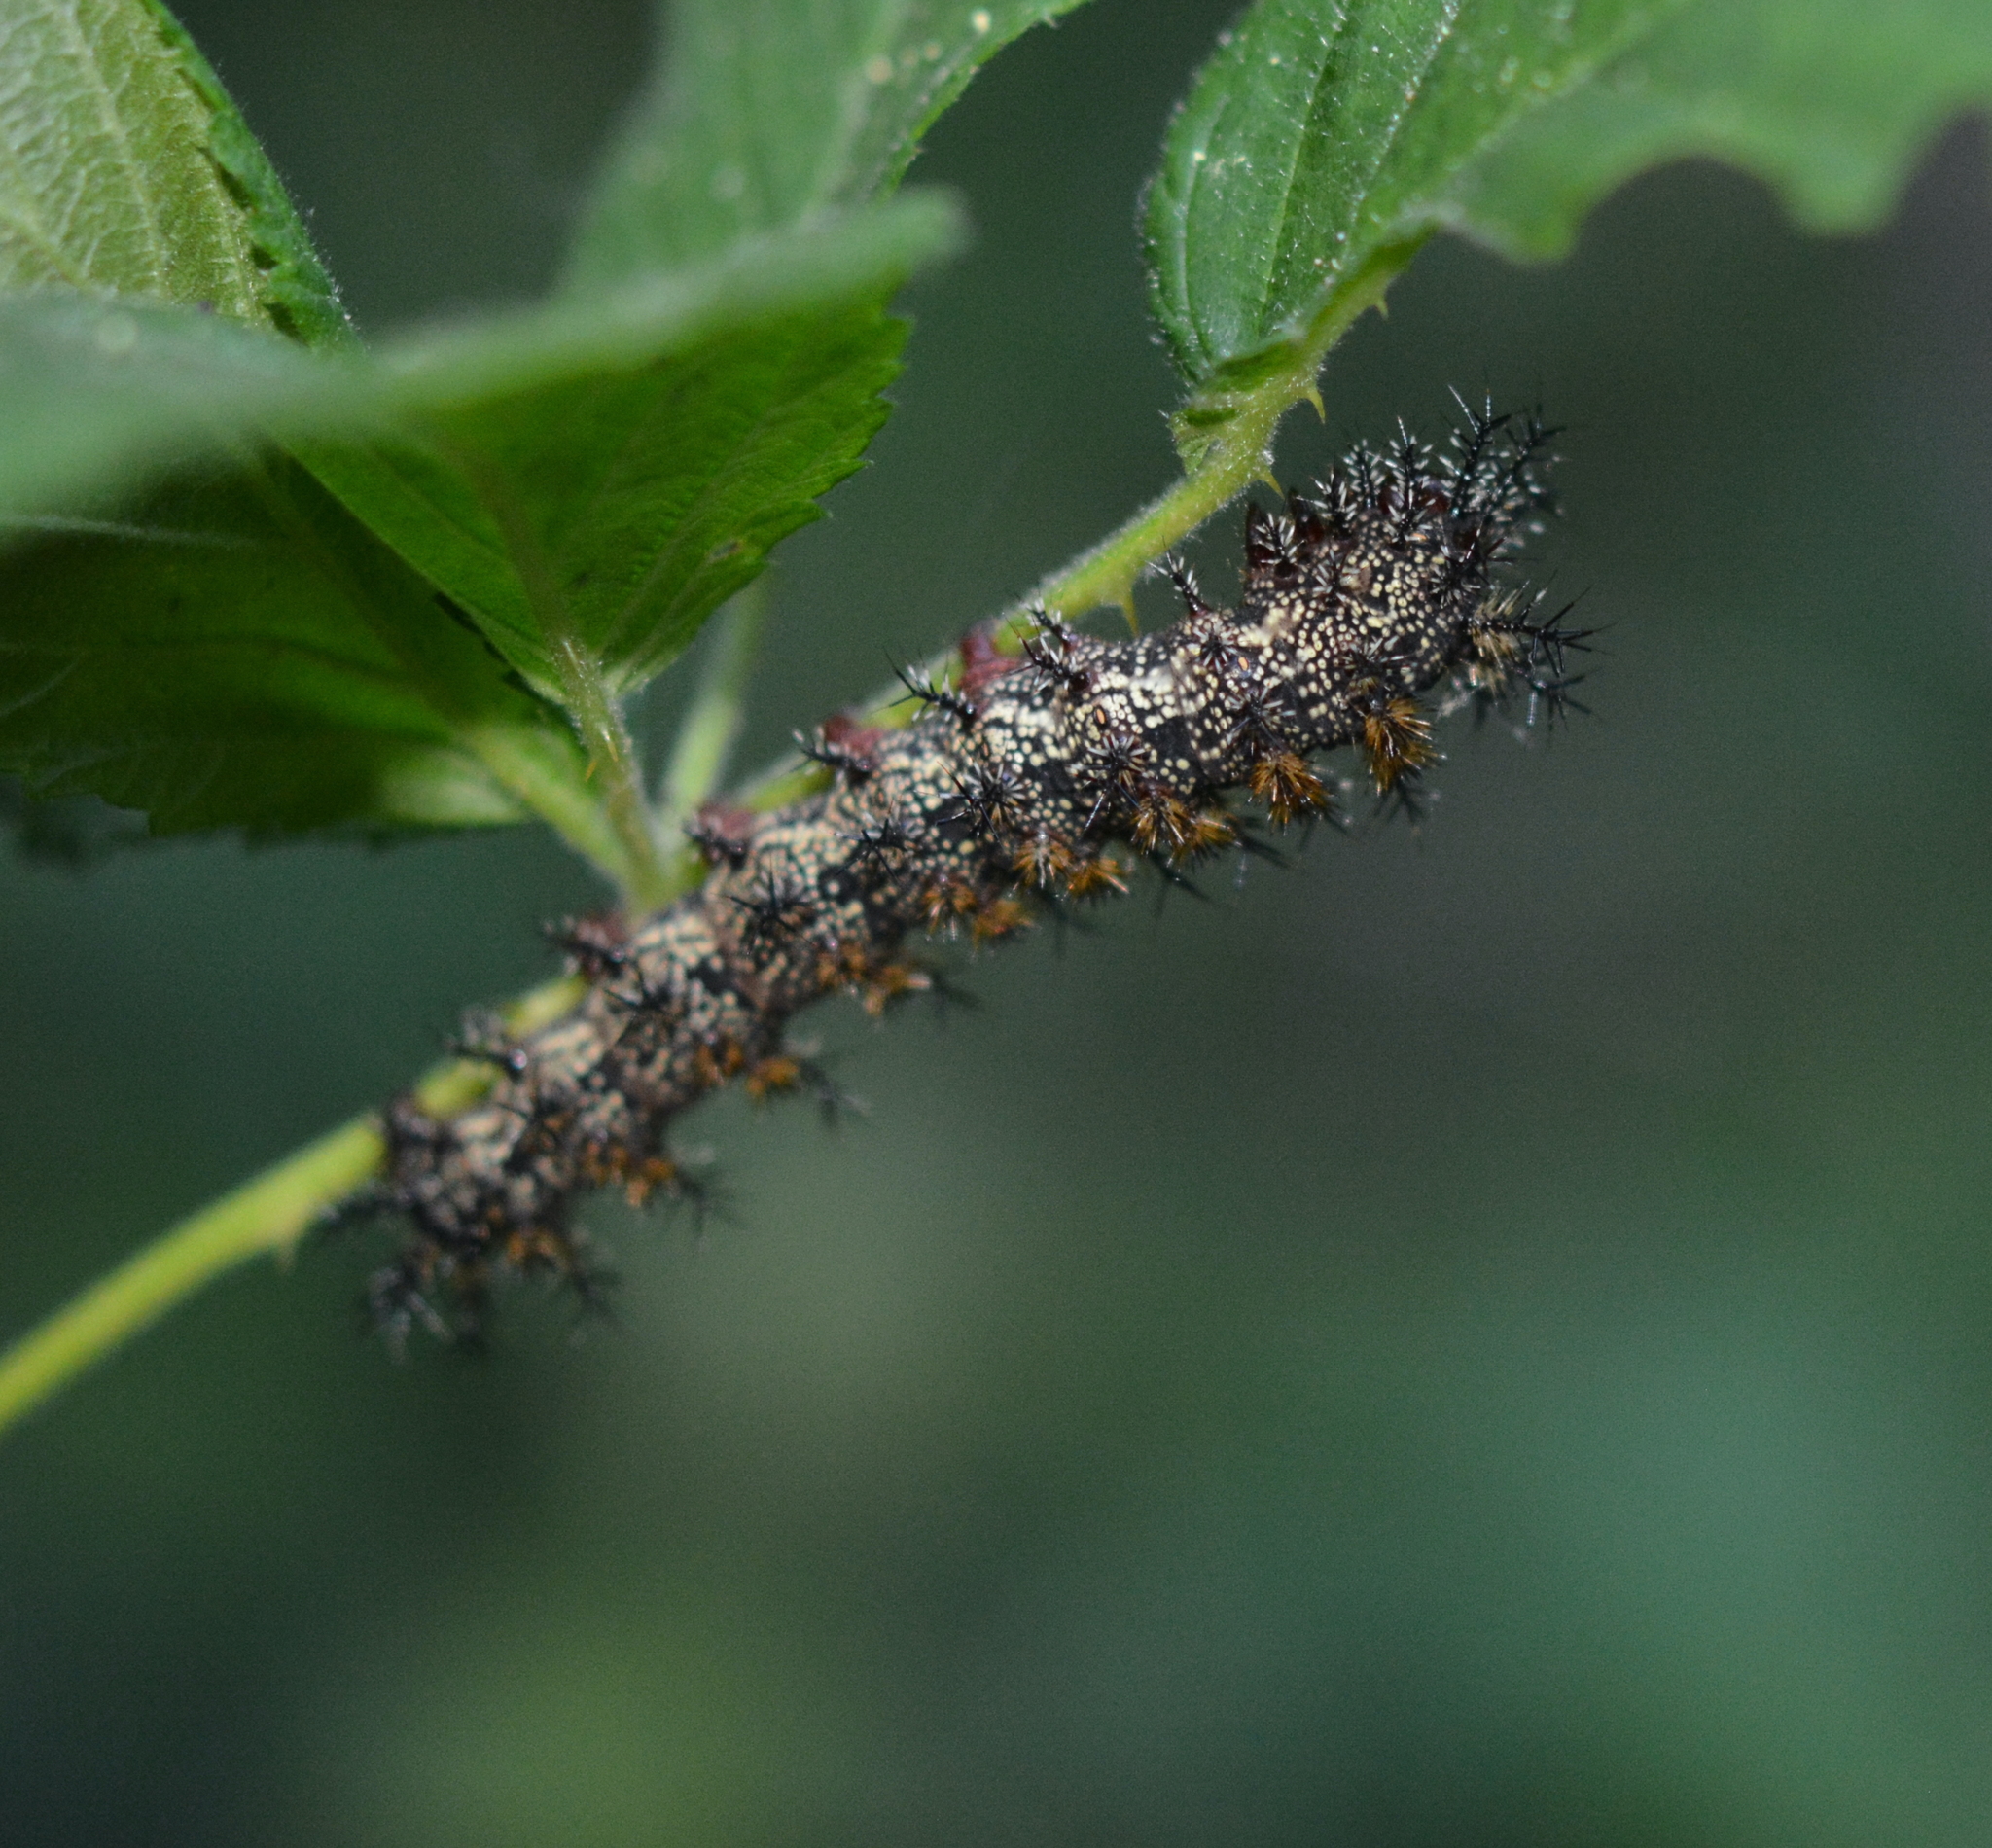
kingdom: Animalia
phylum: Arthropoda
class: Insecta
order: Lepidoptera
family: Saturniidae
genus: Hemileuca
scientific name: Hemileuca maia
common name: Eastern buckmoth
